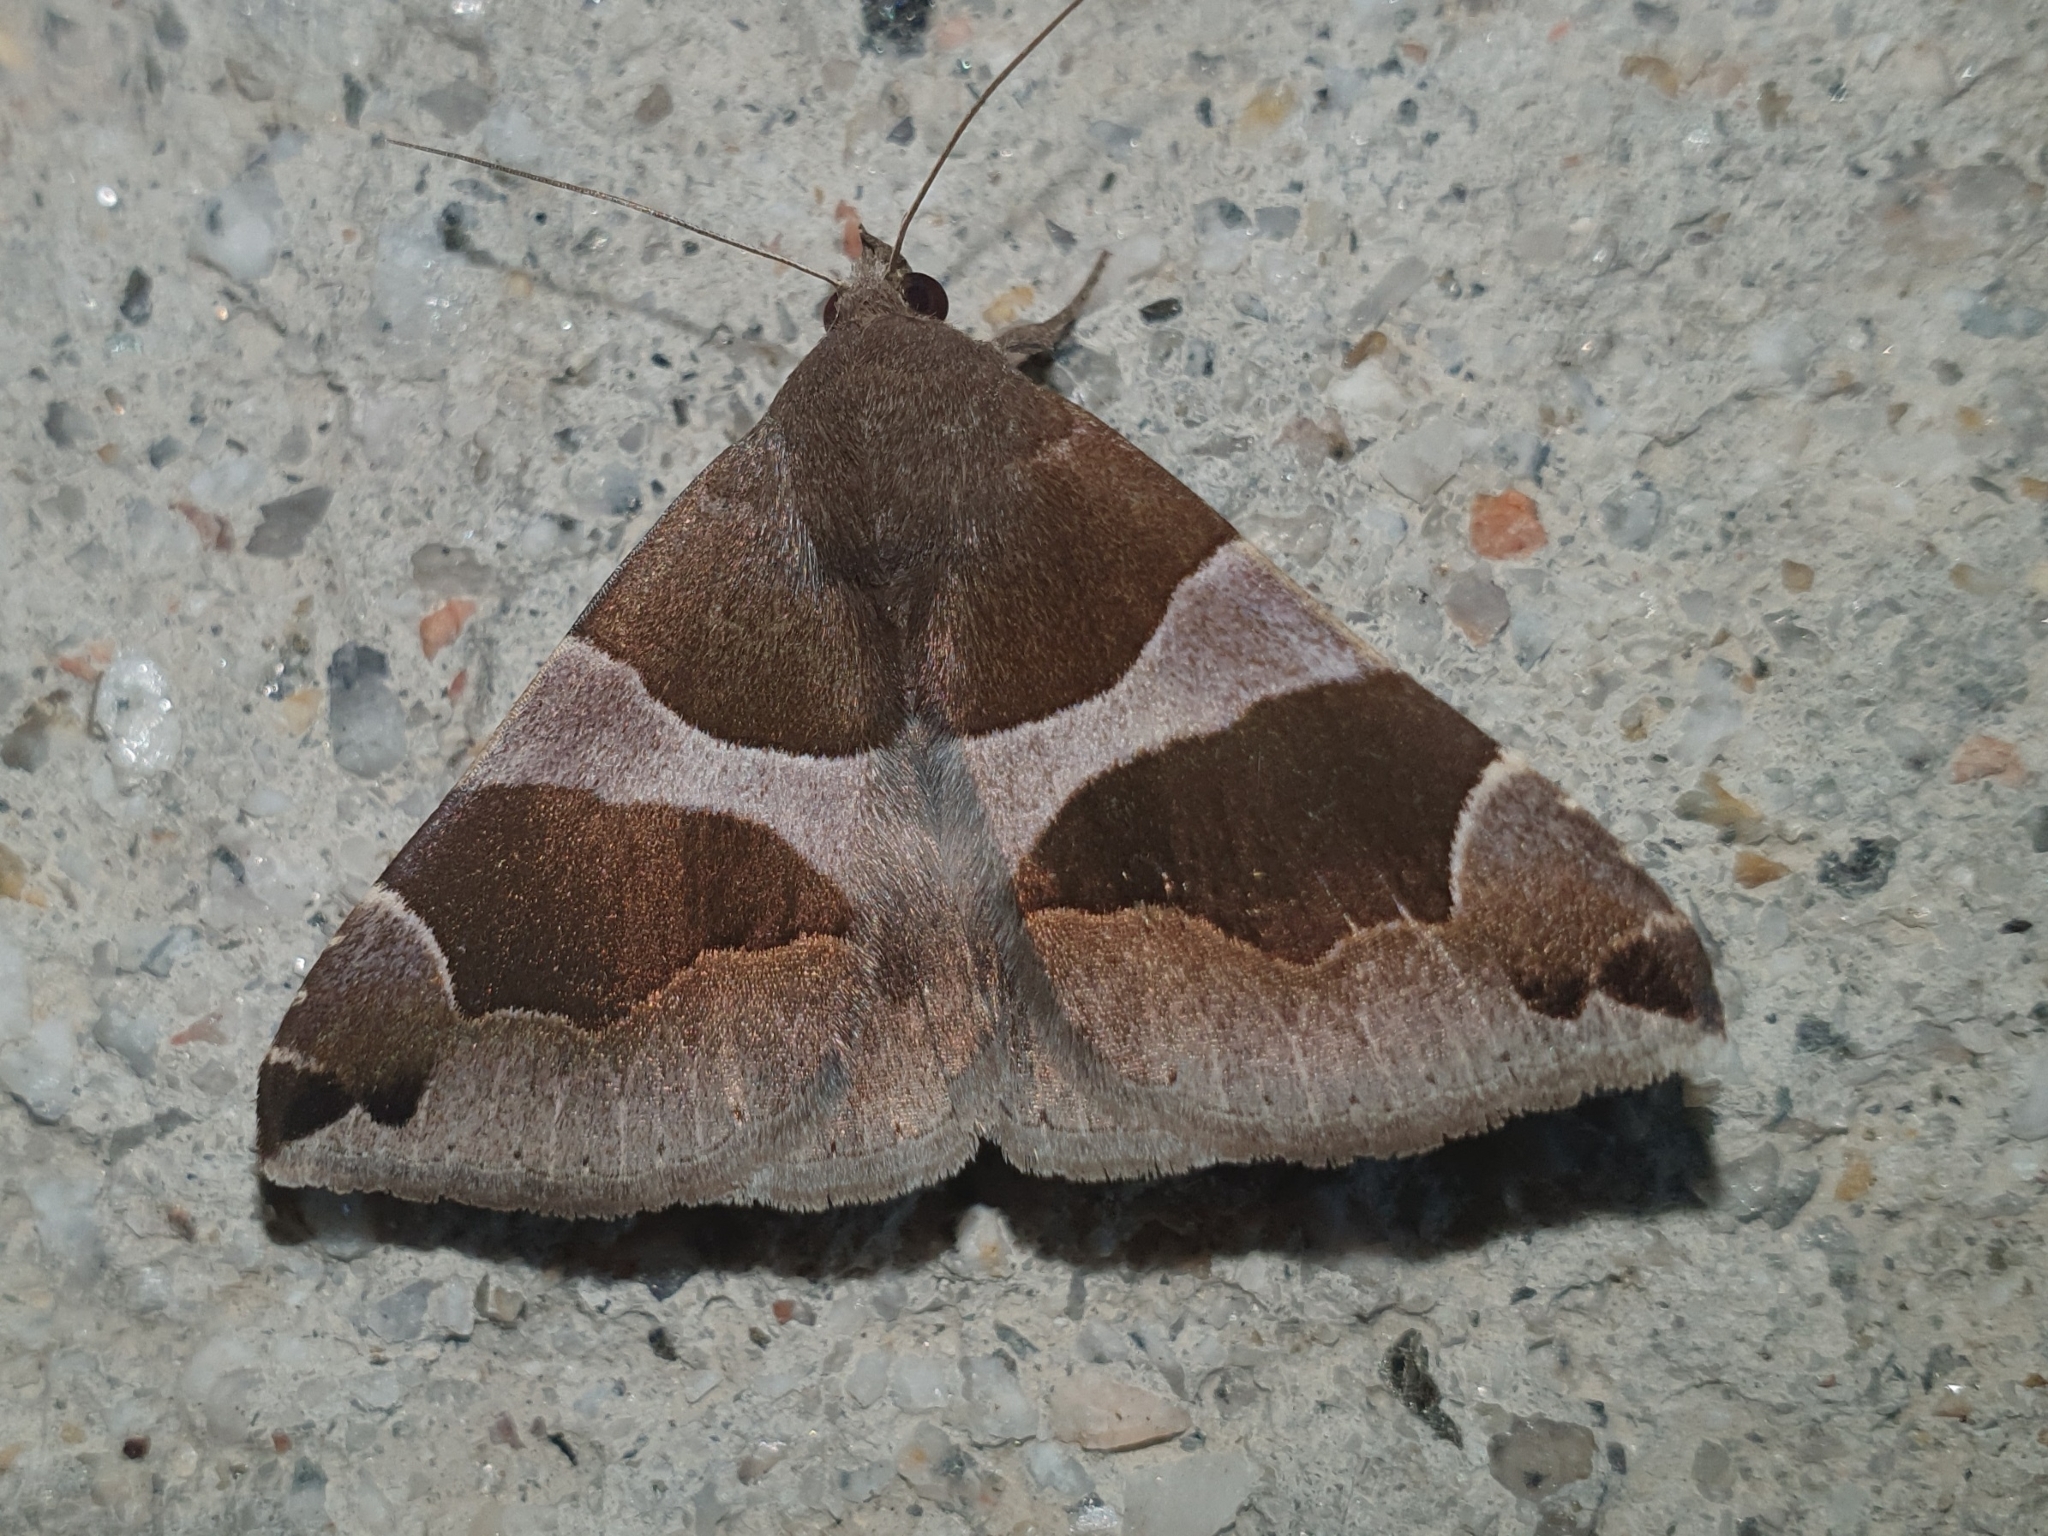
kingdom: Animalia
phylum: Arthropoda
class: Insecta
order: Lepidoptera
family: Erebidae
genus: Dysgonia
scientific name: Dysgonia algira
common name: Passenger
